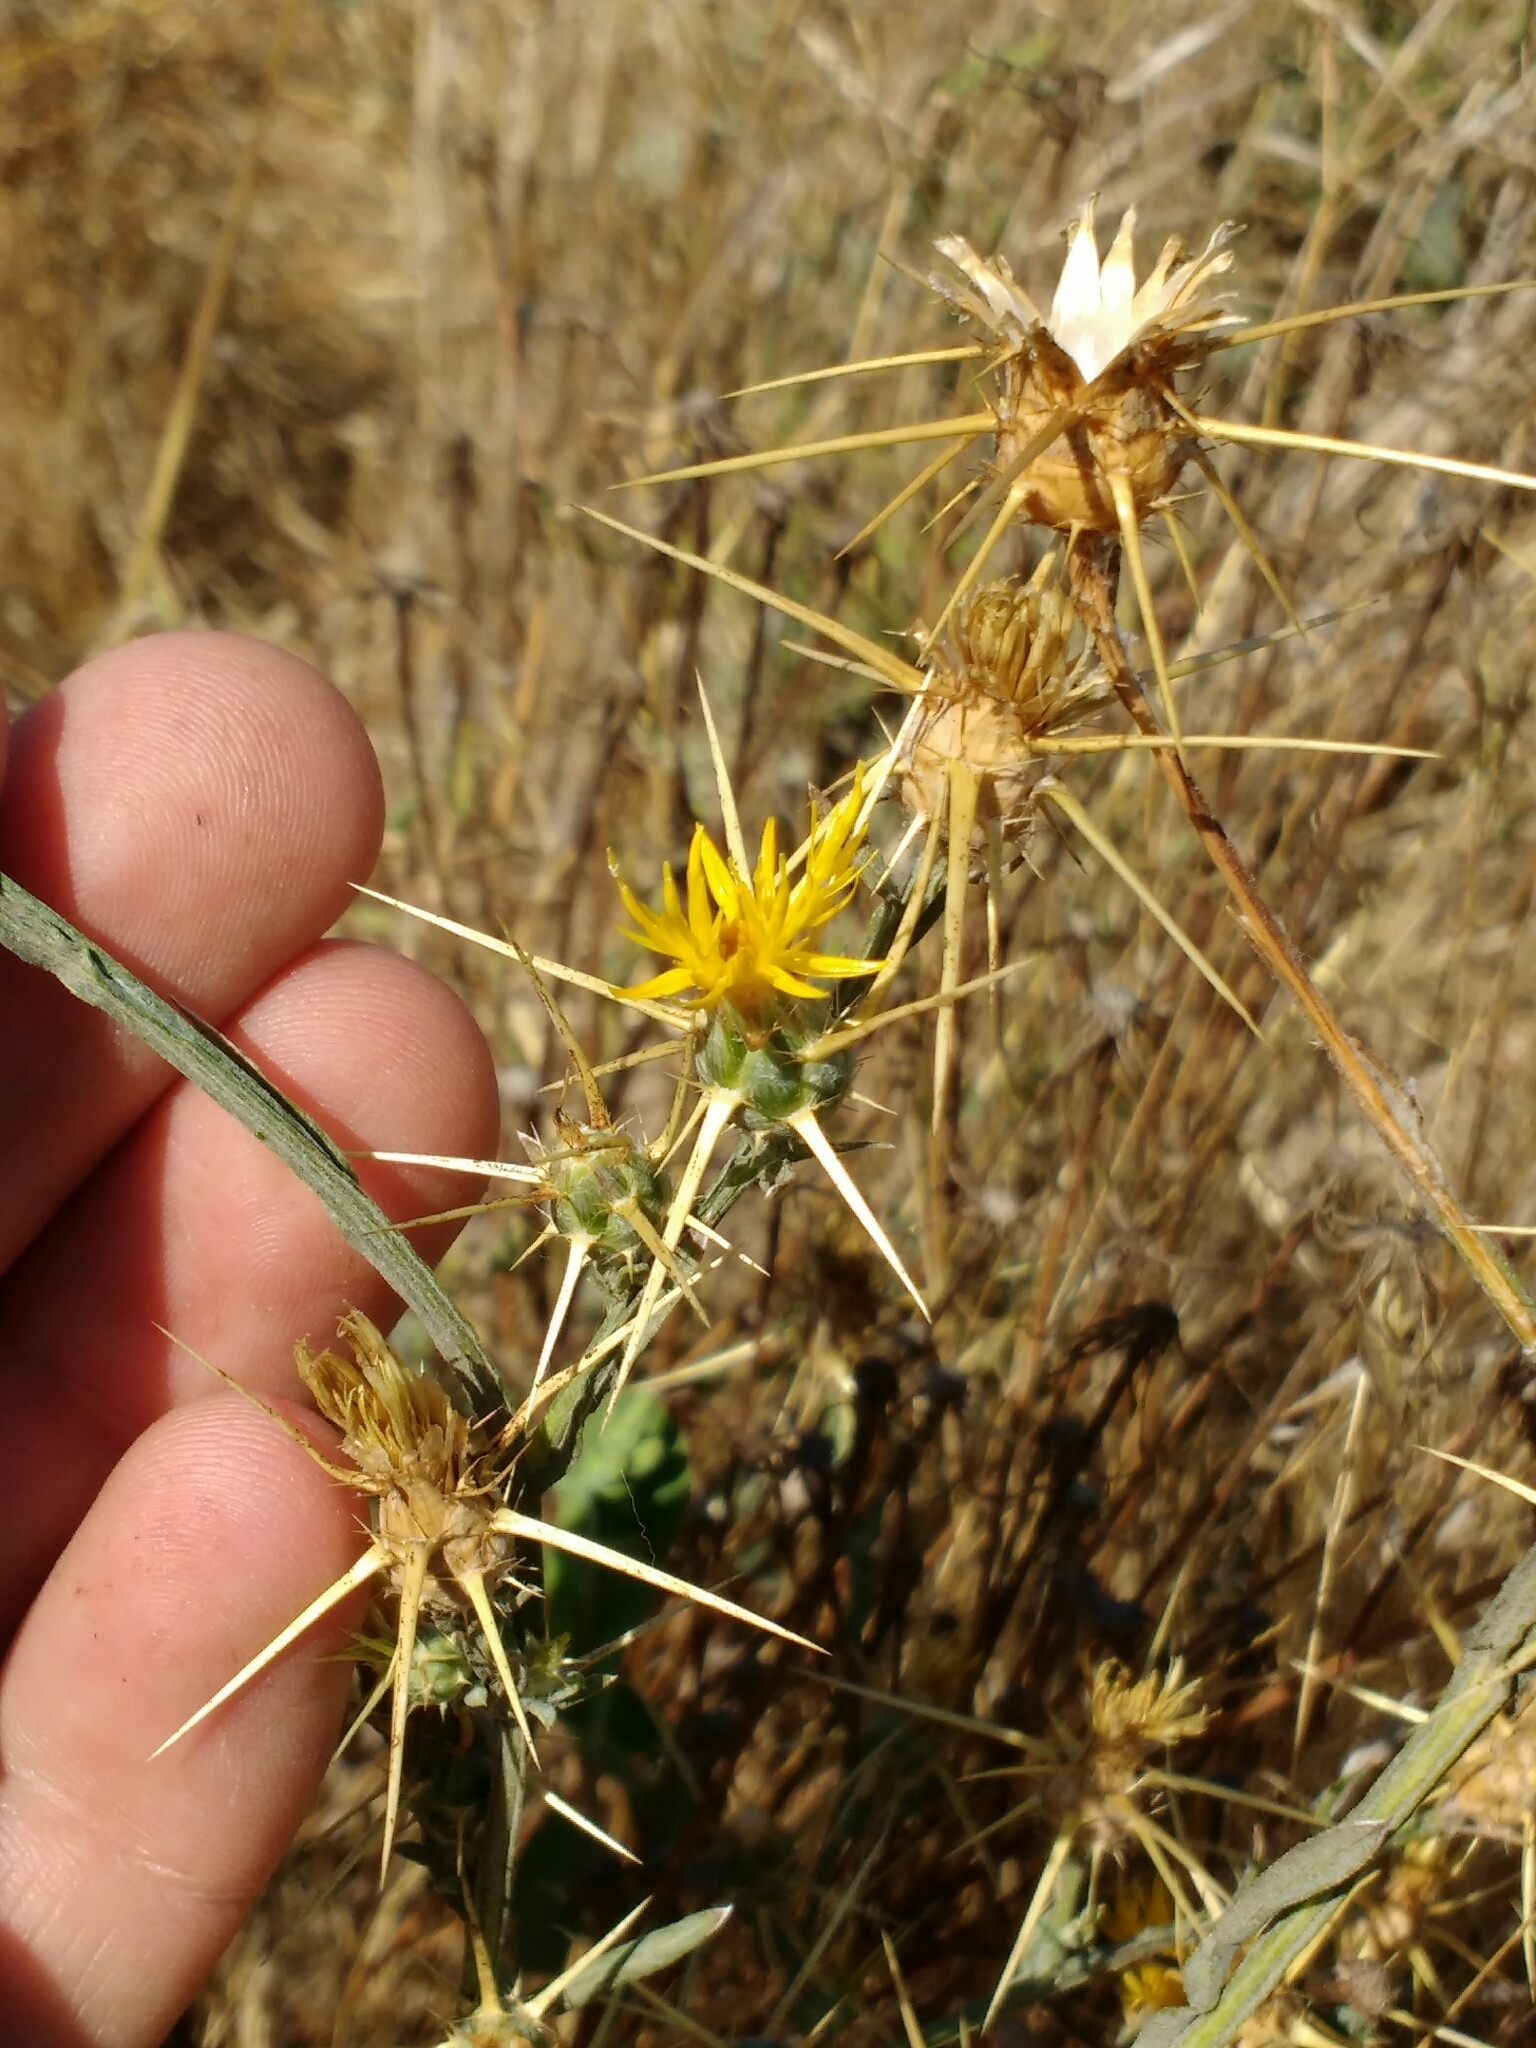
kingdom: Plantae
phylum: Tracheophyta
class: Magnoliopsida
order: Asterales
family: Asteraceae
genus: Centaurea
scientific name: Centaurea solstitialis
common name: Yellow star-thistle
